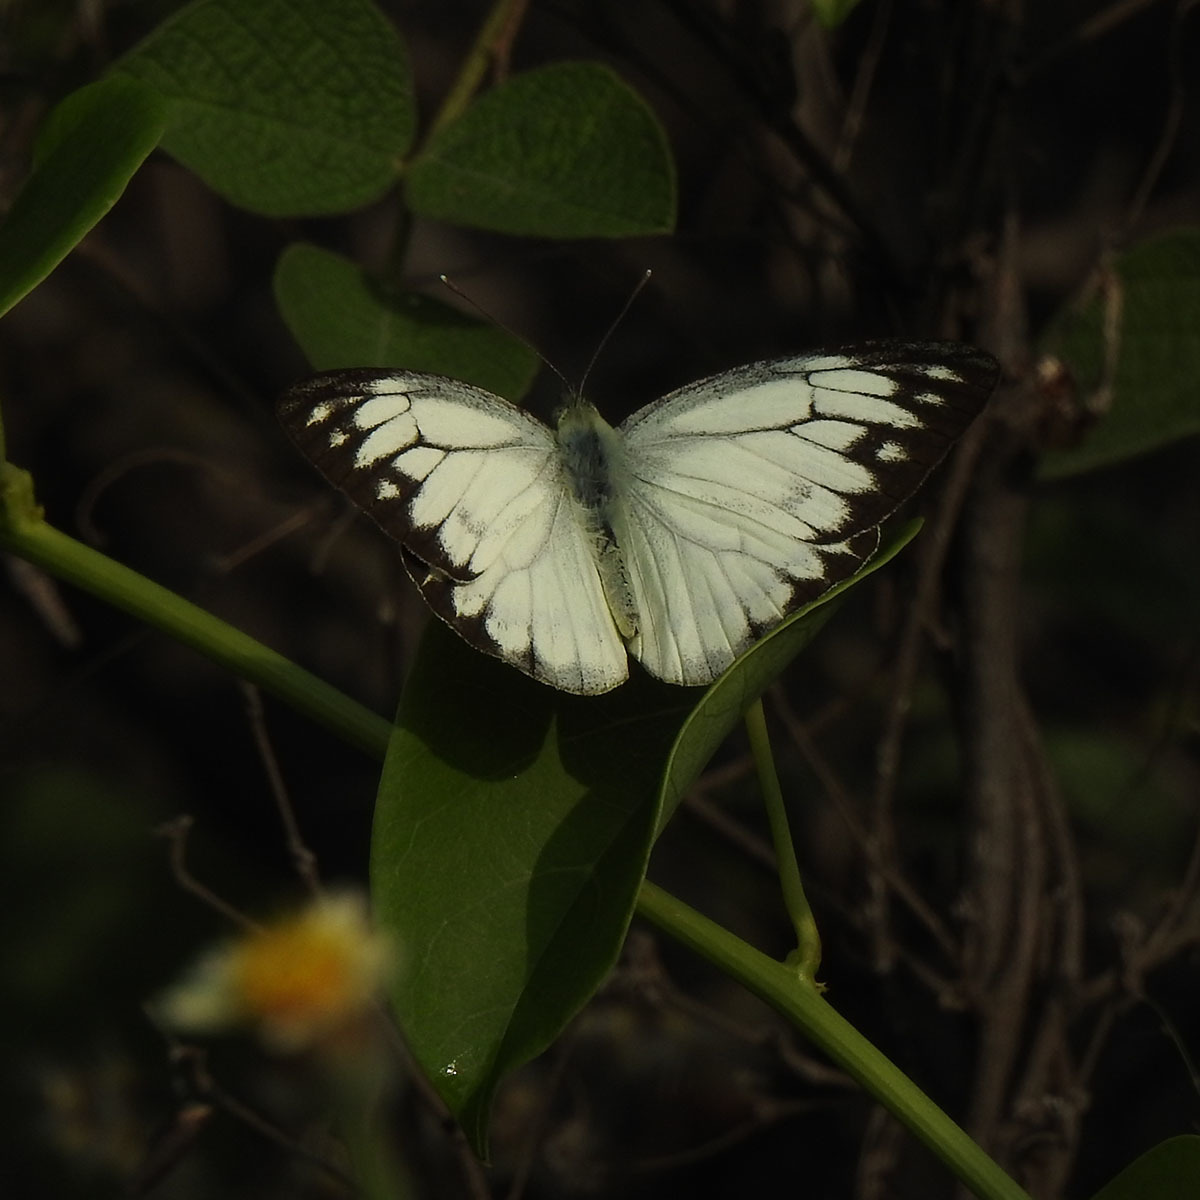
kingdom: Animalia
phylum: Arthropoda
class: Insecta
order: Lepidoptera
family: Pieridae
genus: Cepora
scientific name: Cepora nerissa
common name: Common gull
